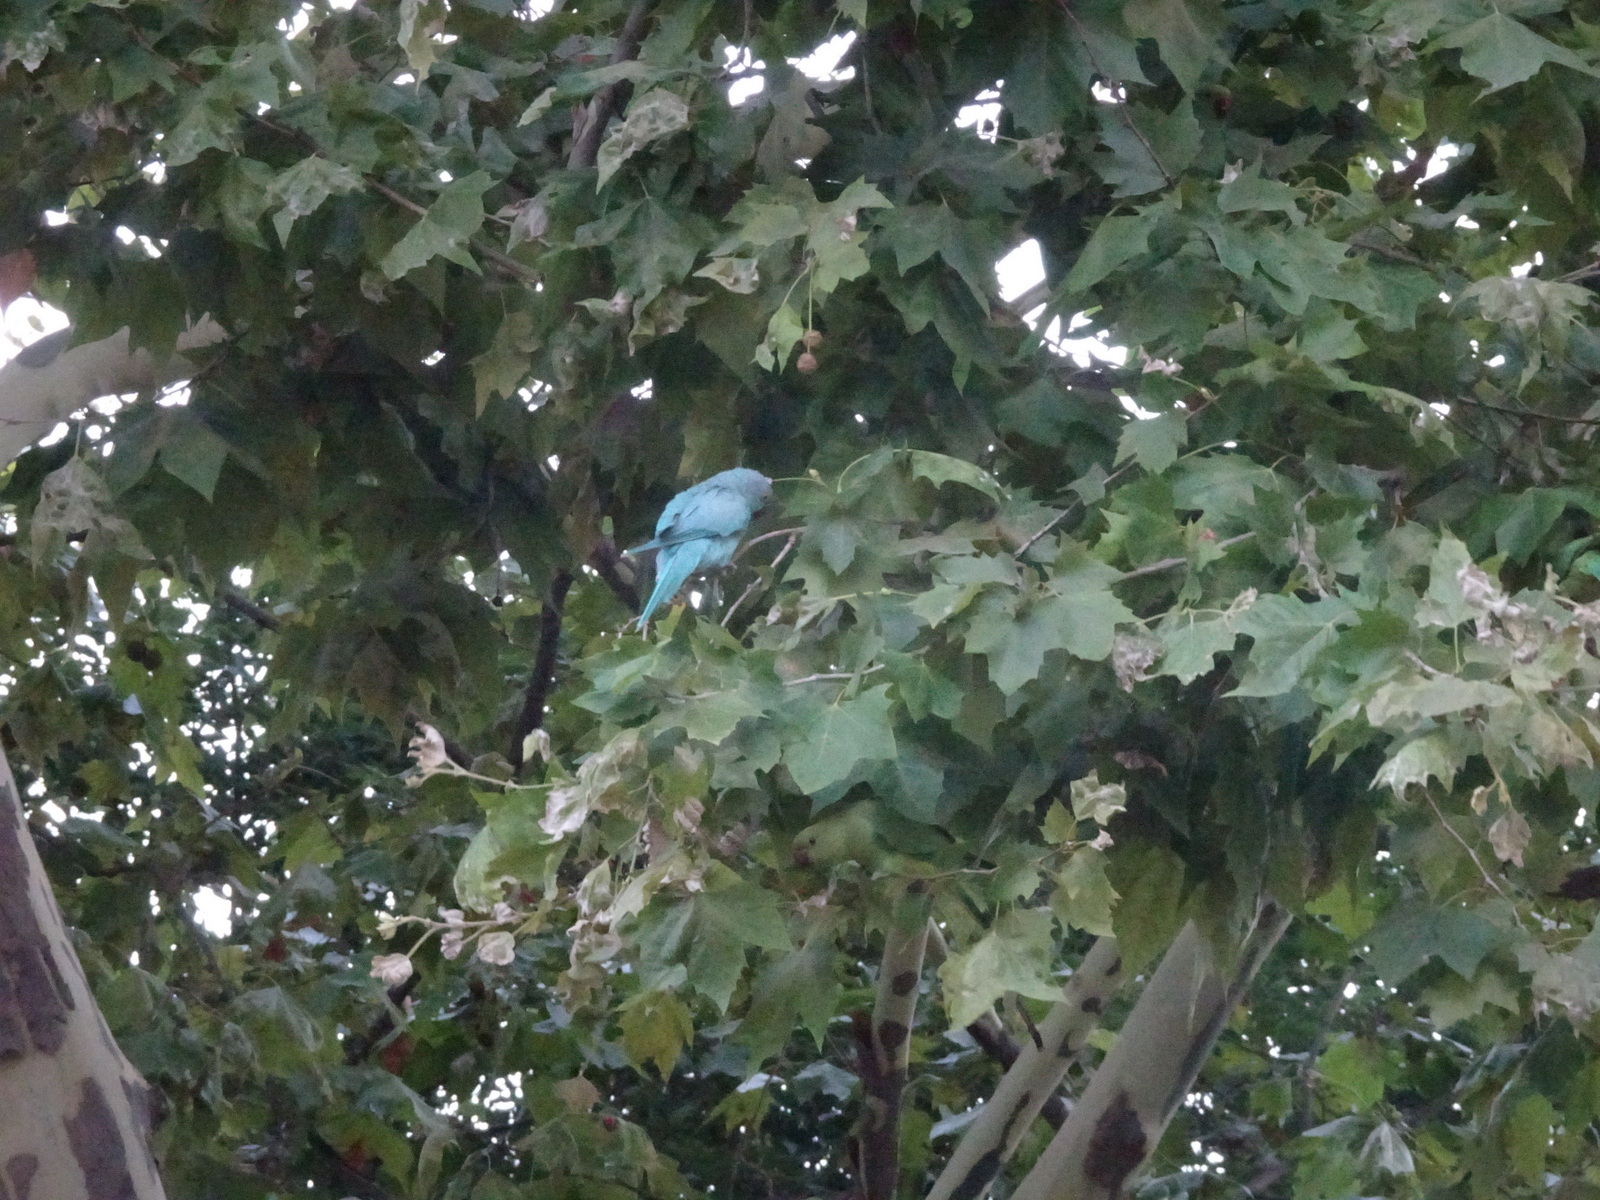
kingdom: Animalia
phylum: Chordata
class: Aves
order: Psittaciformes
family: Psittacidae
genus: Psittacula
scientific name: Psittacula krameri
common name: Rose-ringed parakeet
